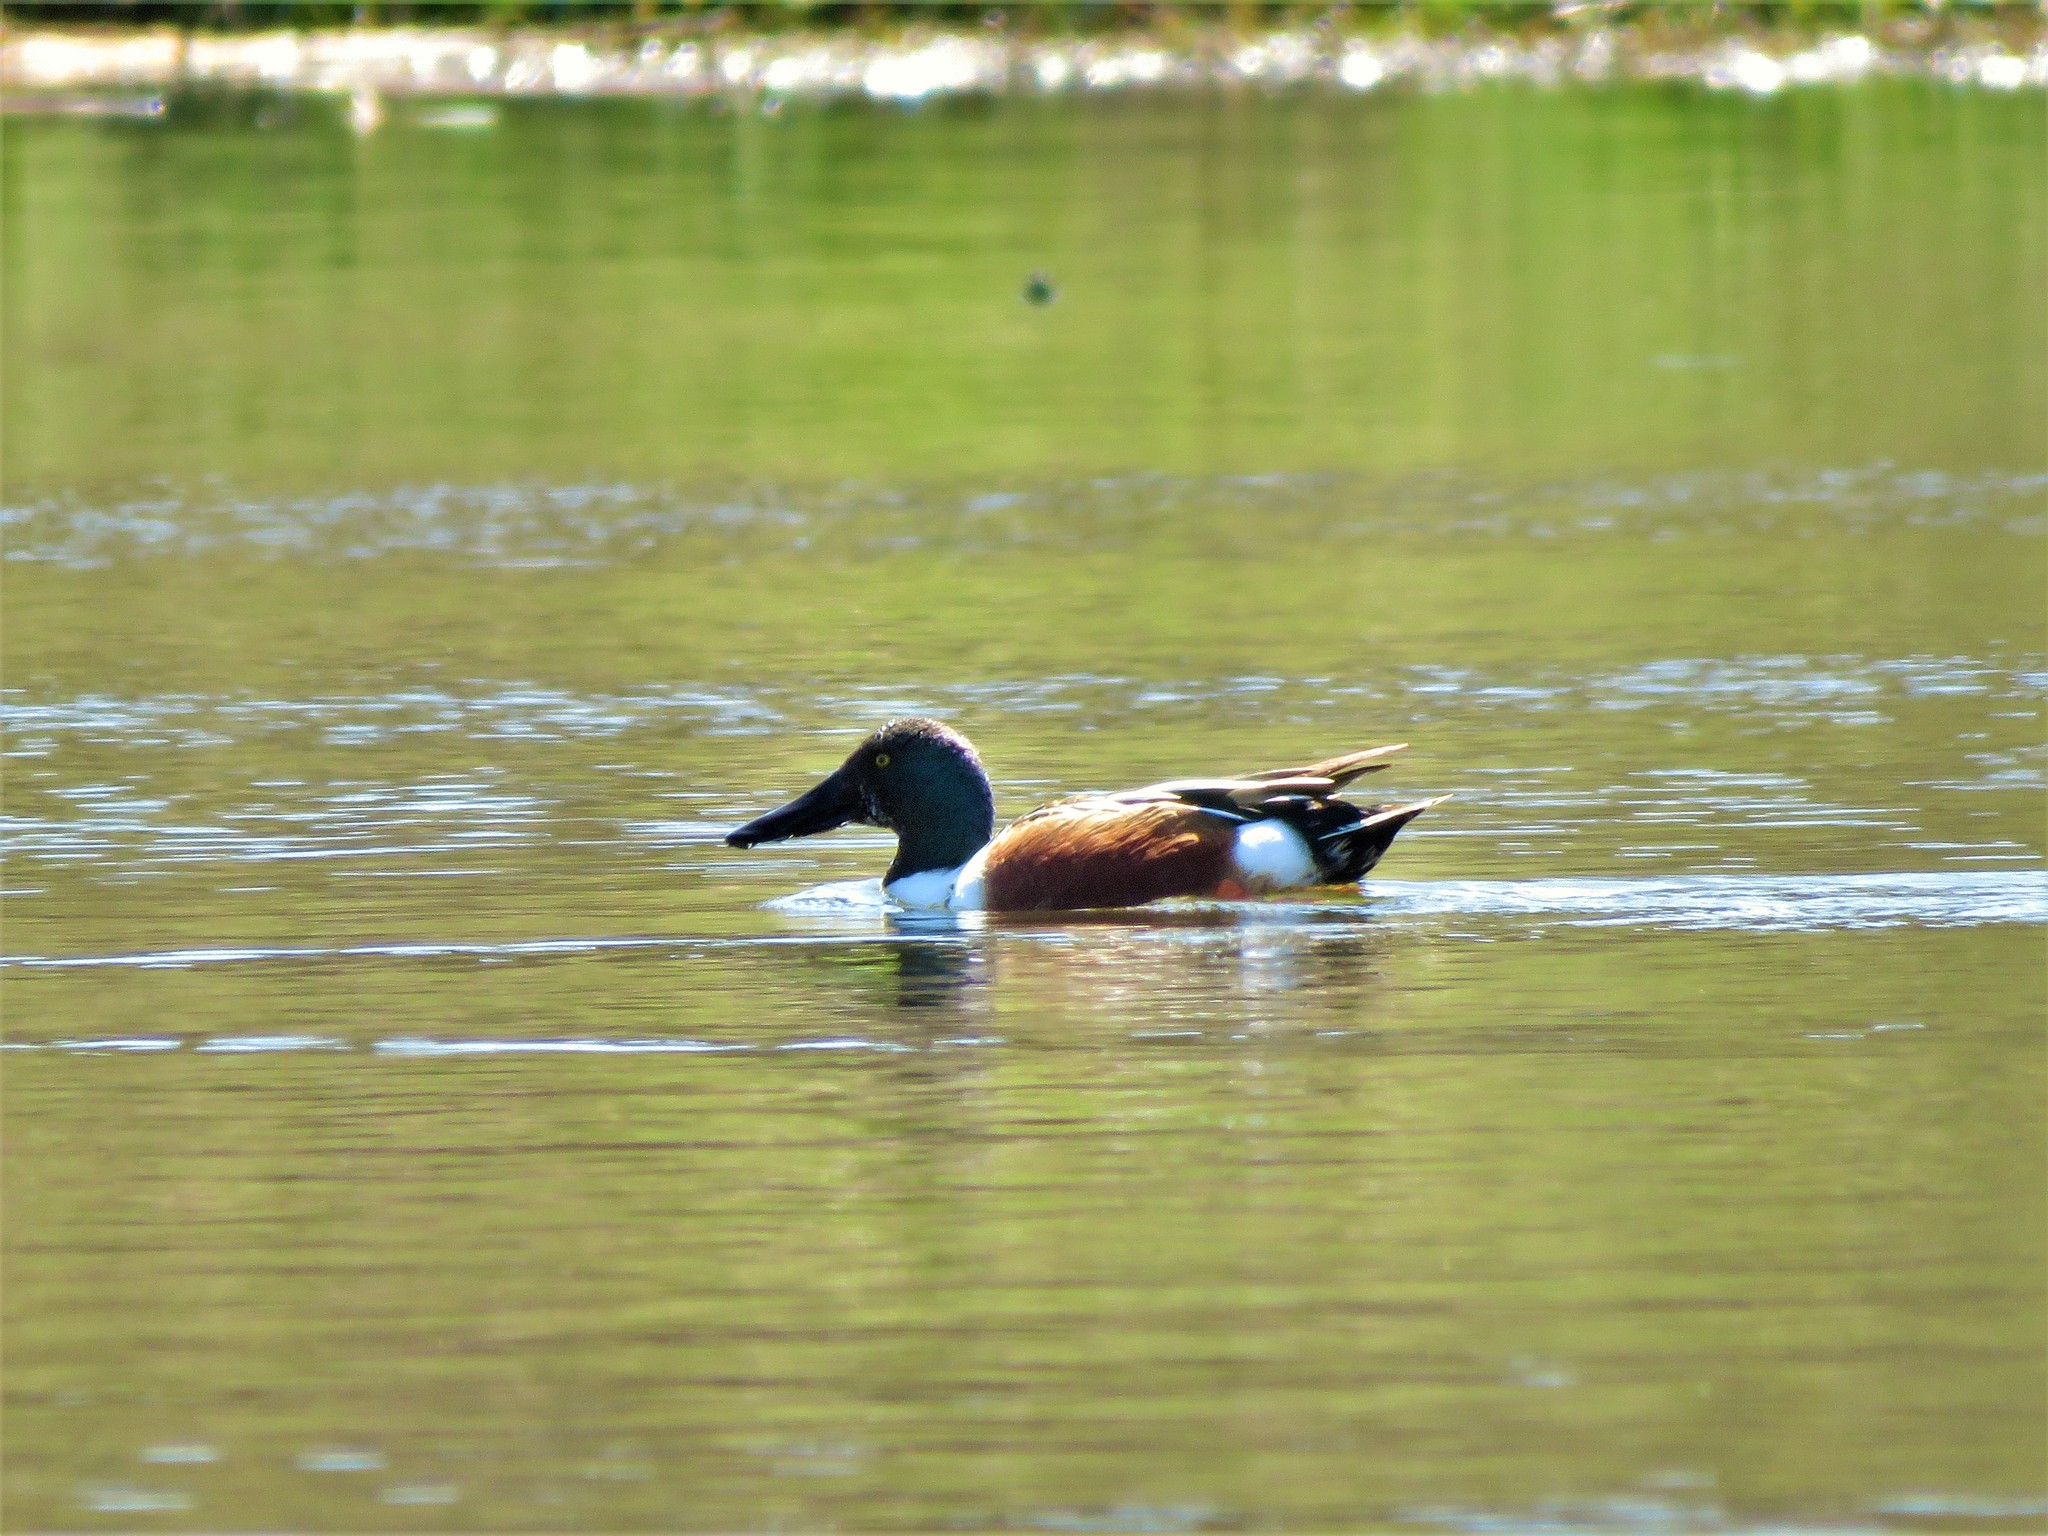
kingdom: Animalia
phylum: Chordata
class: Aves
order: Anseriformes
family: Anatidae
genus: Spatula
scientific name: Spatula clypeata
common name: Northern shoveler
